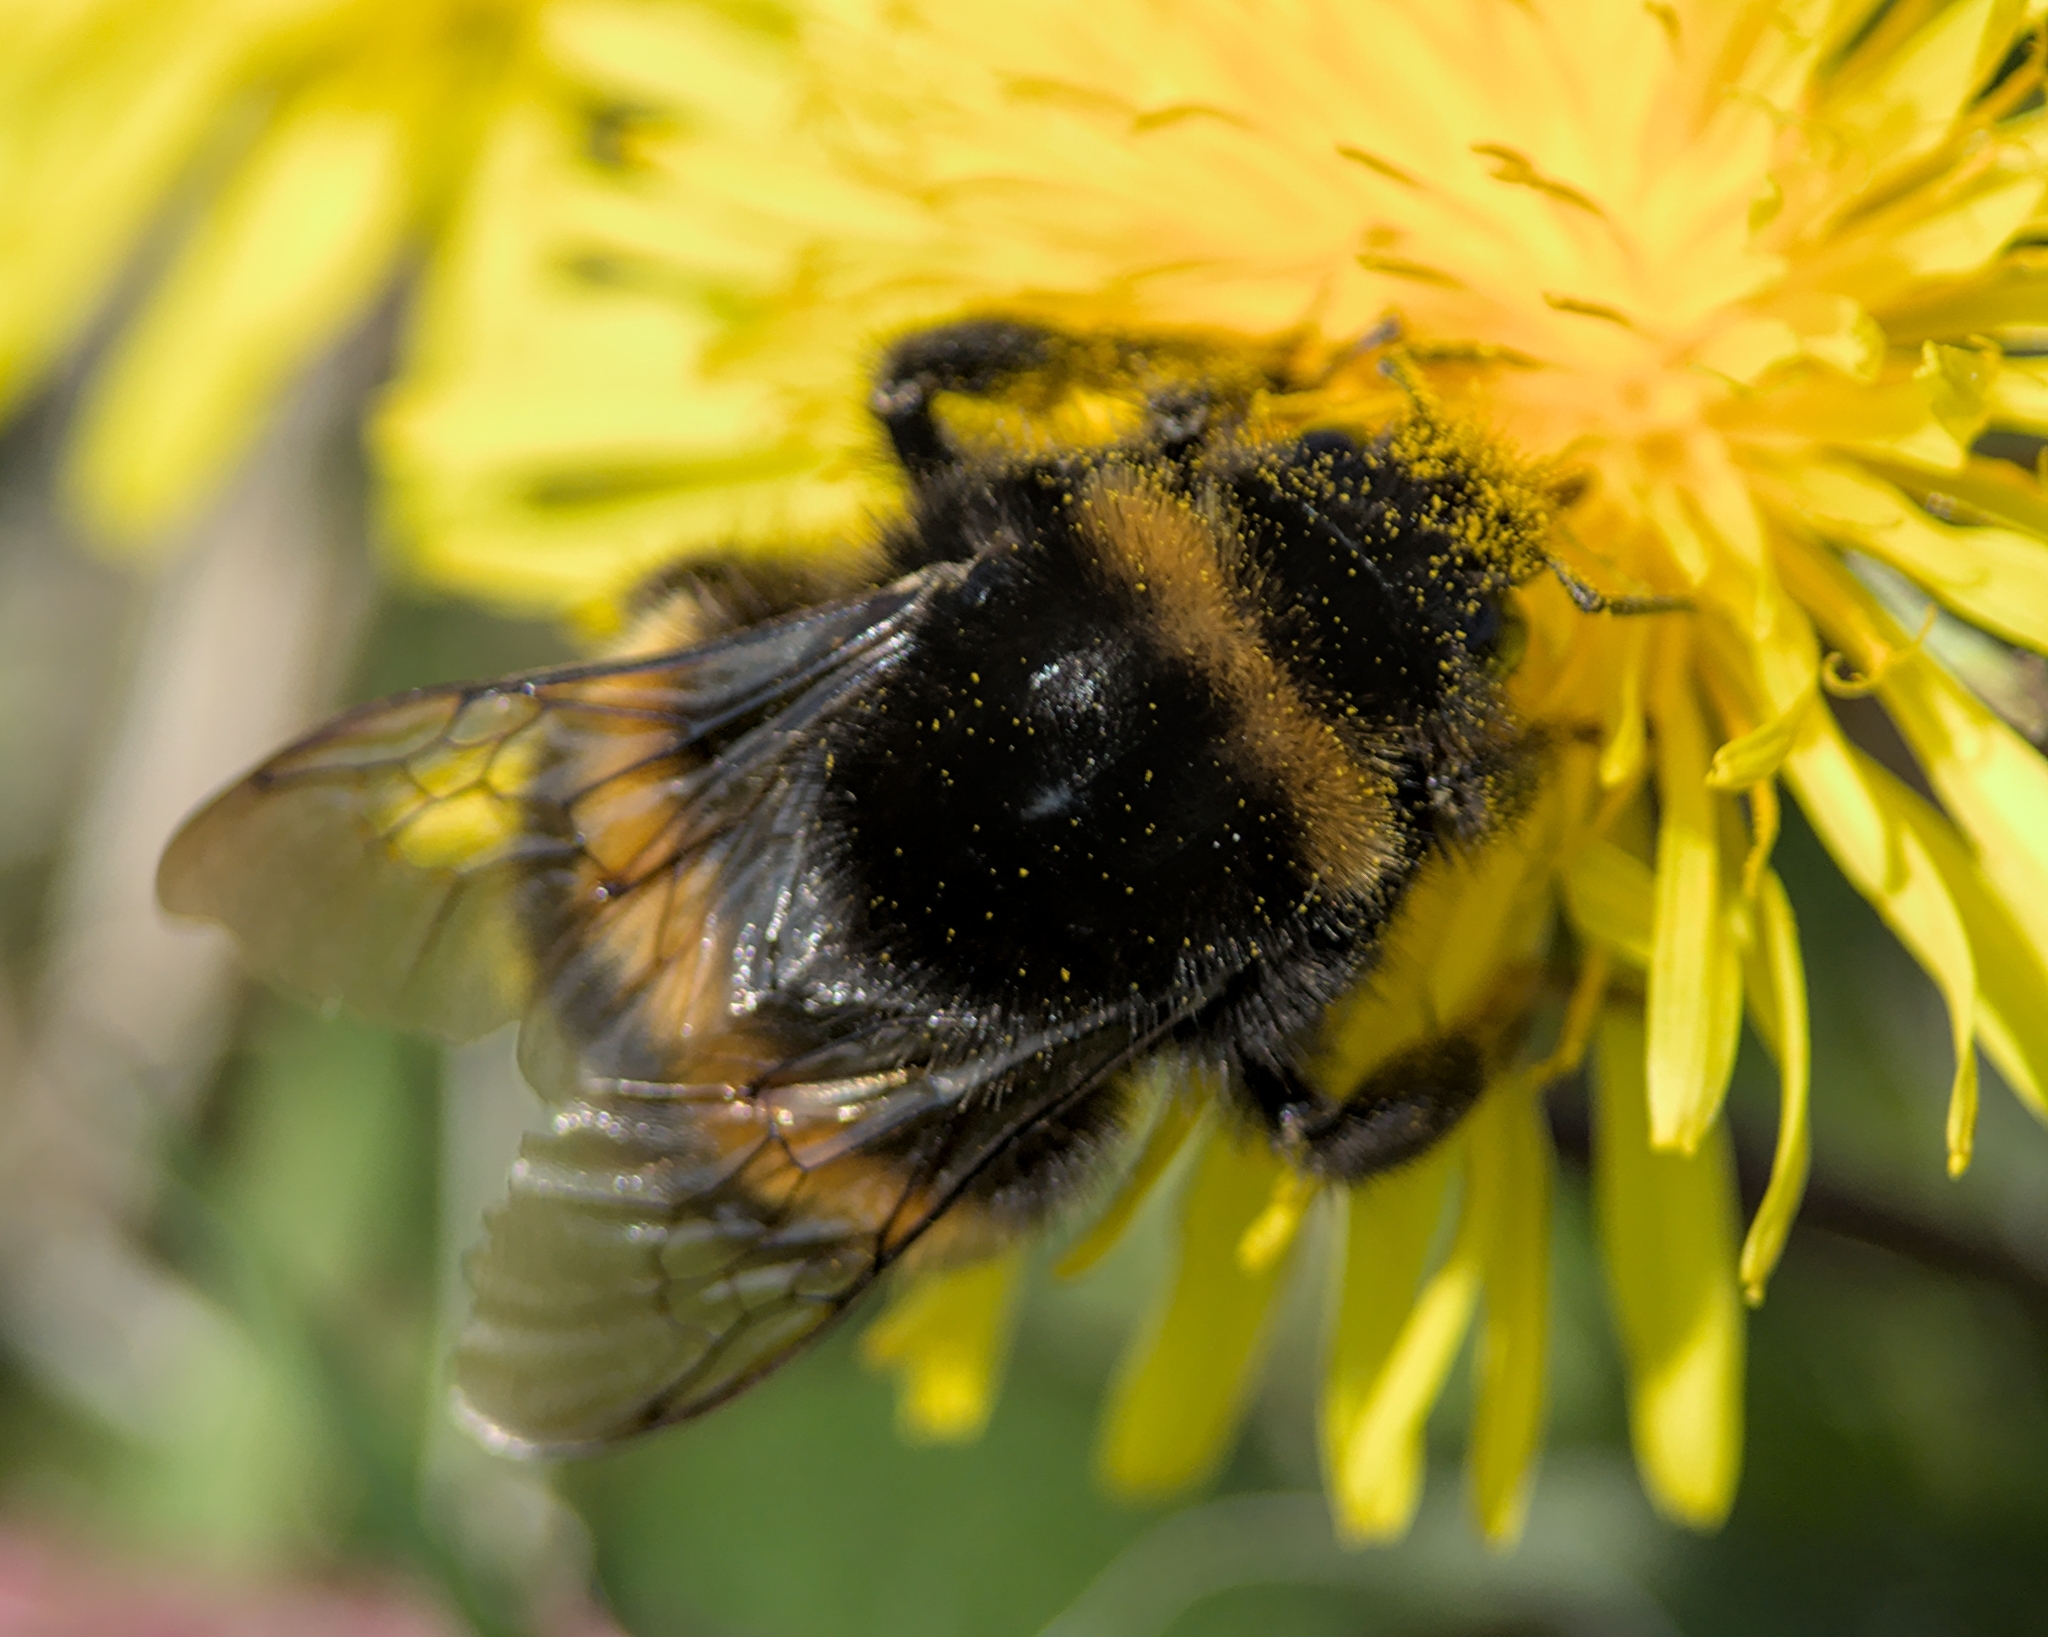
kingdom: Animalia
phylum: Arthropoda
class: Insecta
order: Hymenoptera
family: Apidae
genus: Bombus
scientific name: Bombus terrestris
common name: Buff-tailed bumblebee
